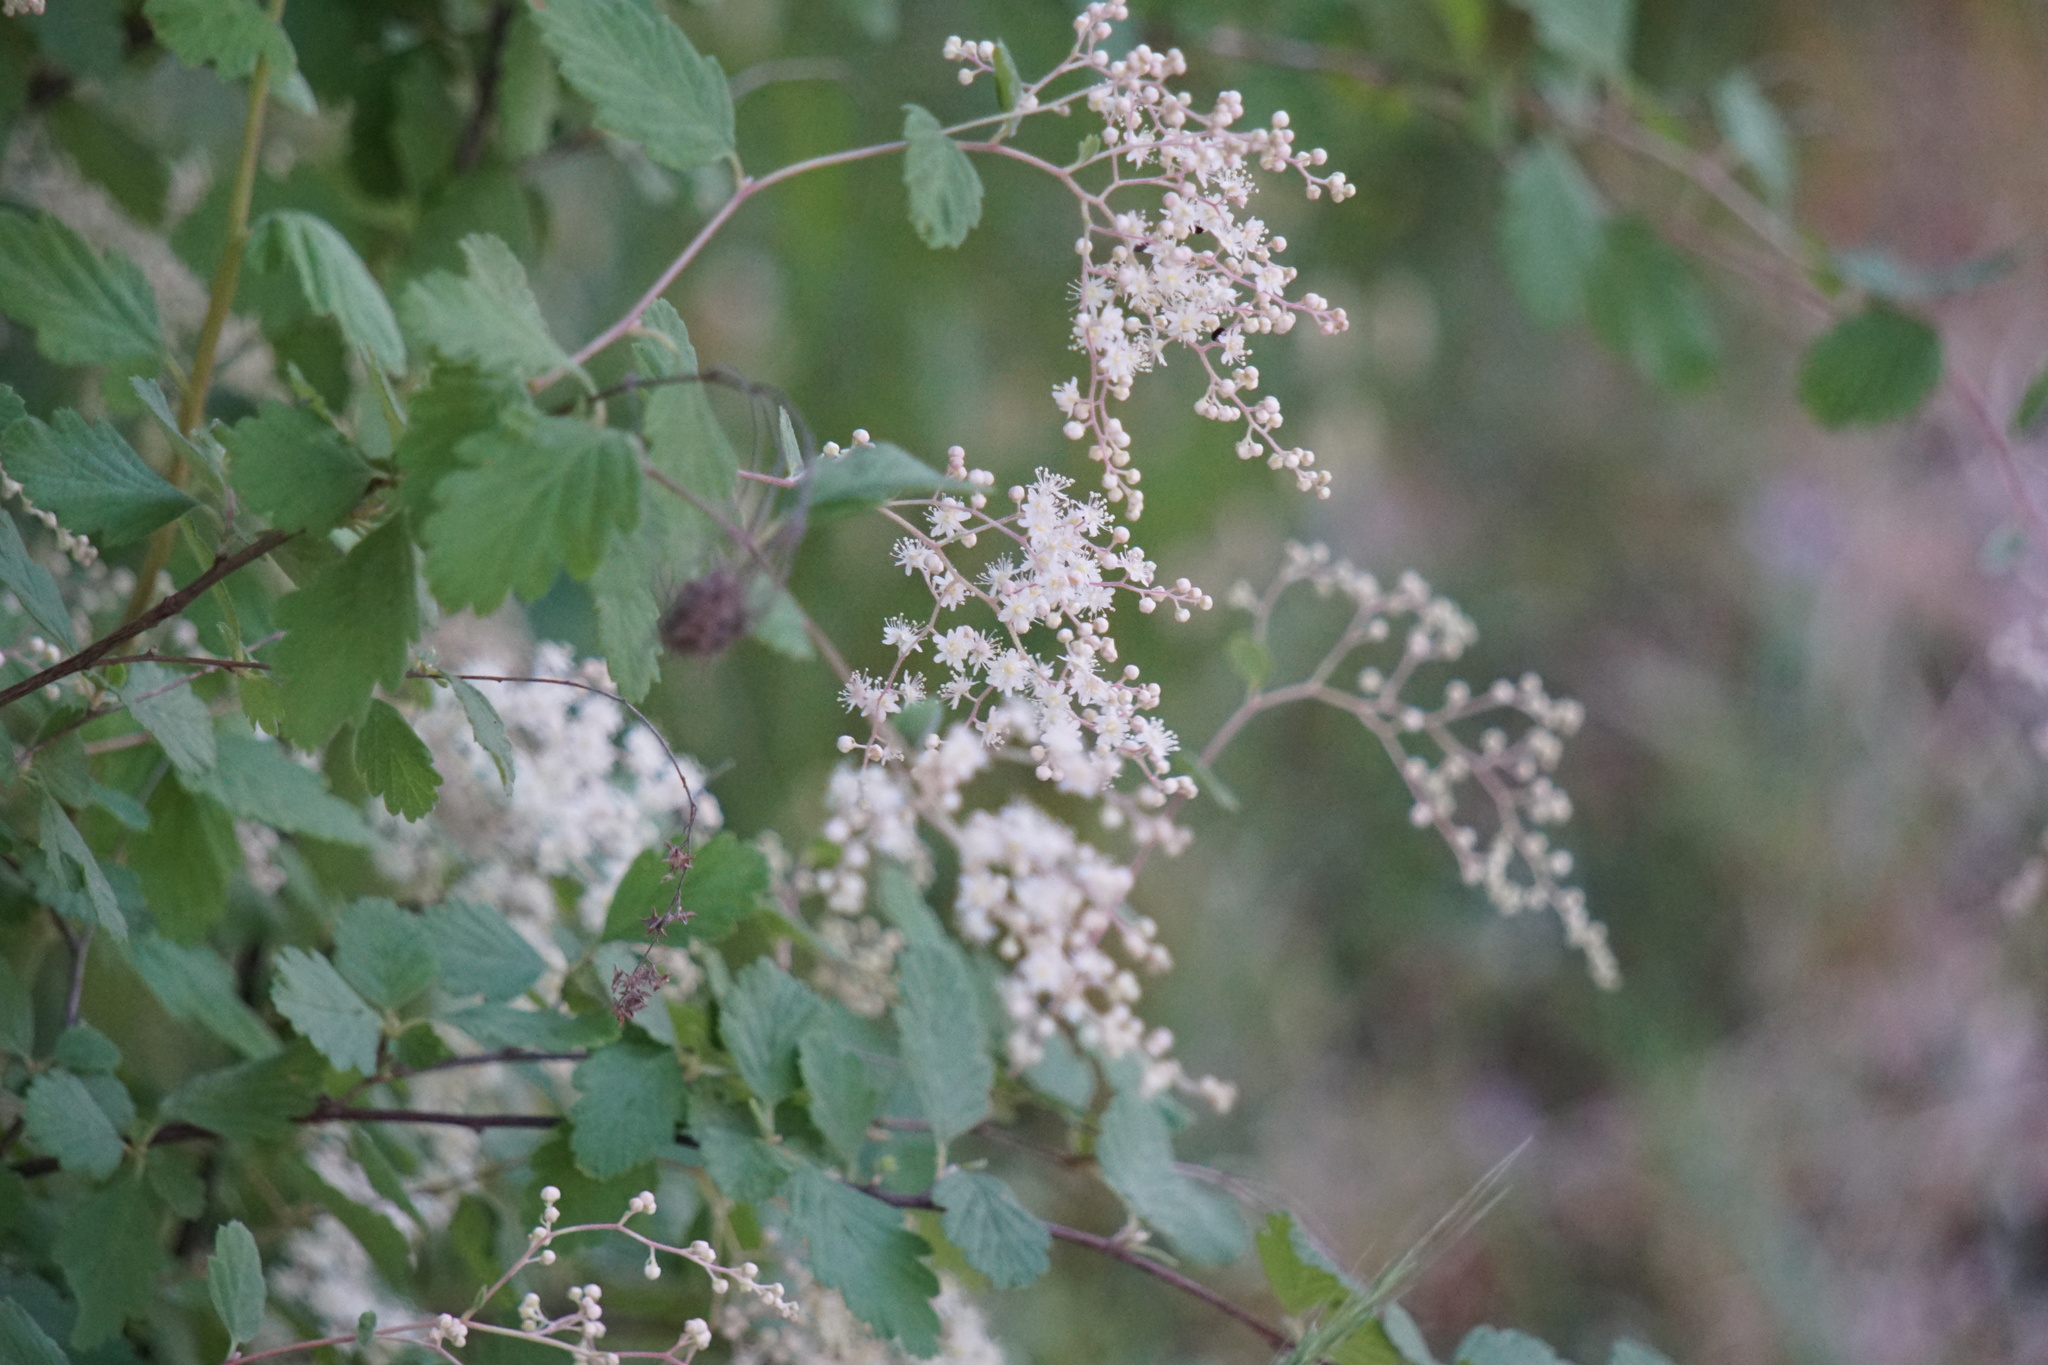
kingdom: Plantae
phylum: Tracheophyta
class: Magnoliopsida
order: Rosales
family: Rosaceae
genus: Holodiscus
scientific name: Holodiscus discolor
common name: Oceanspray
